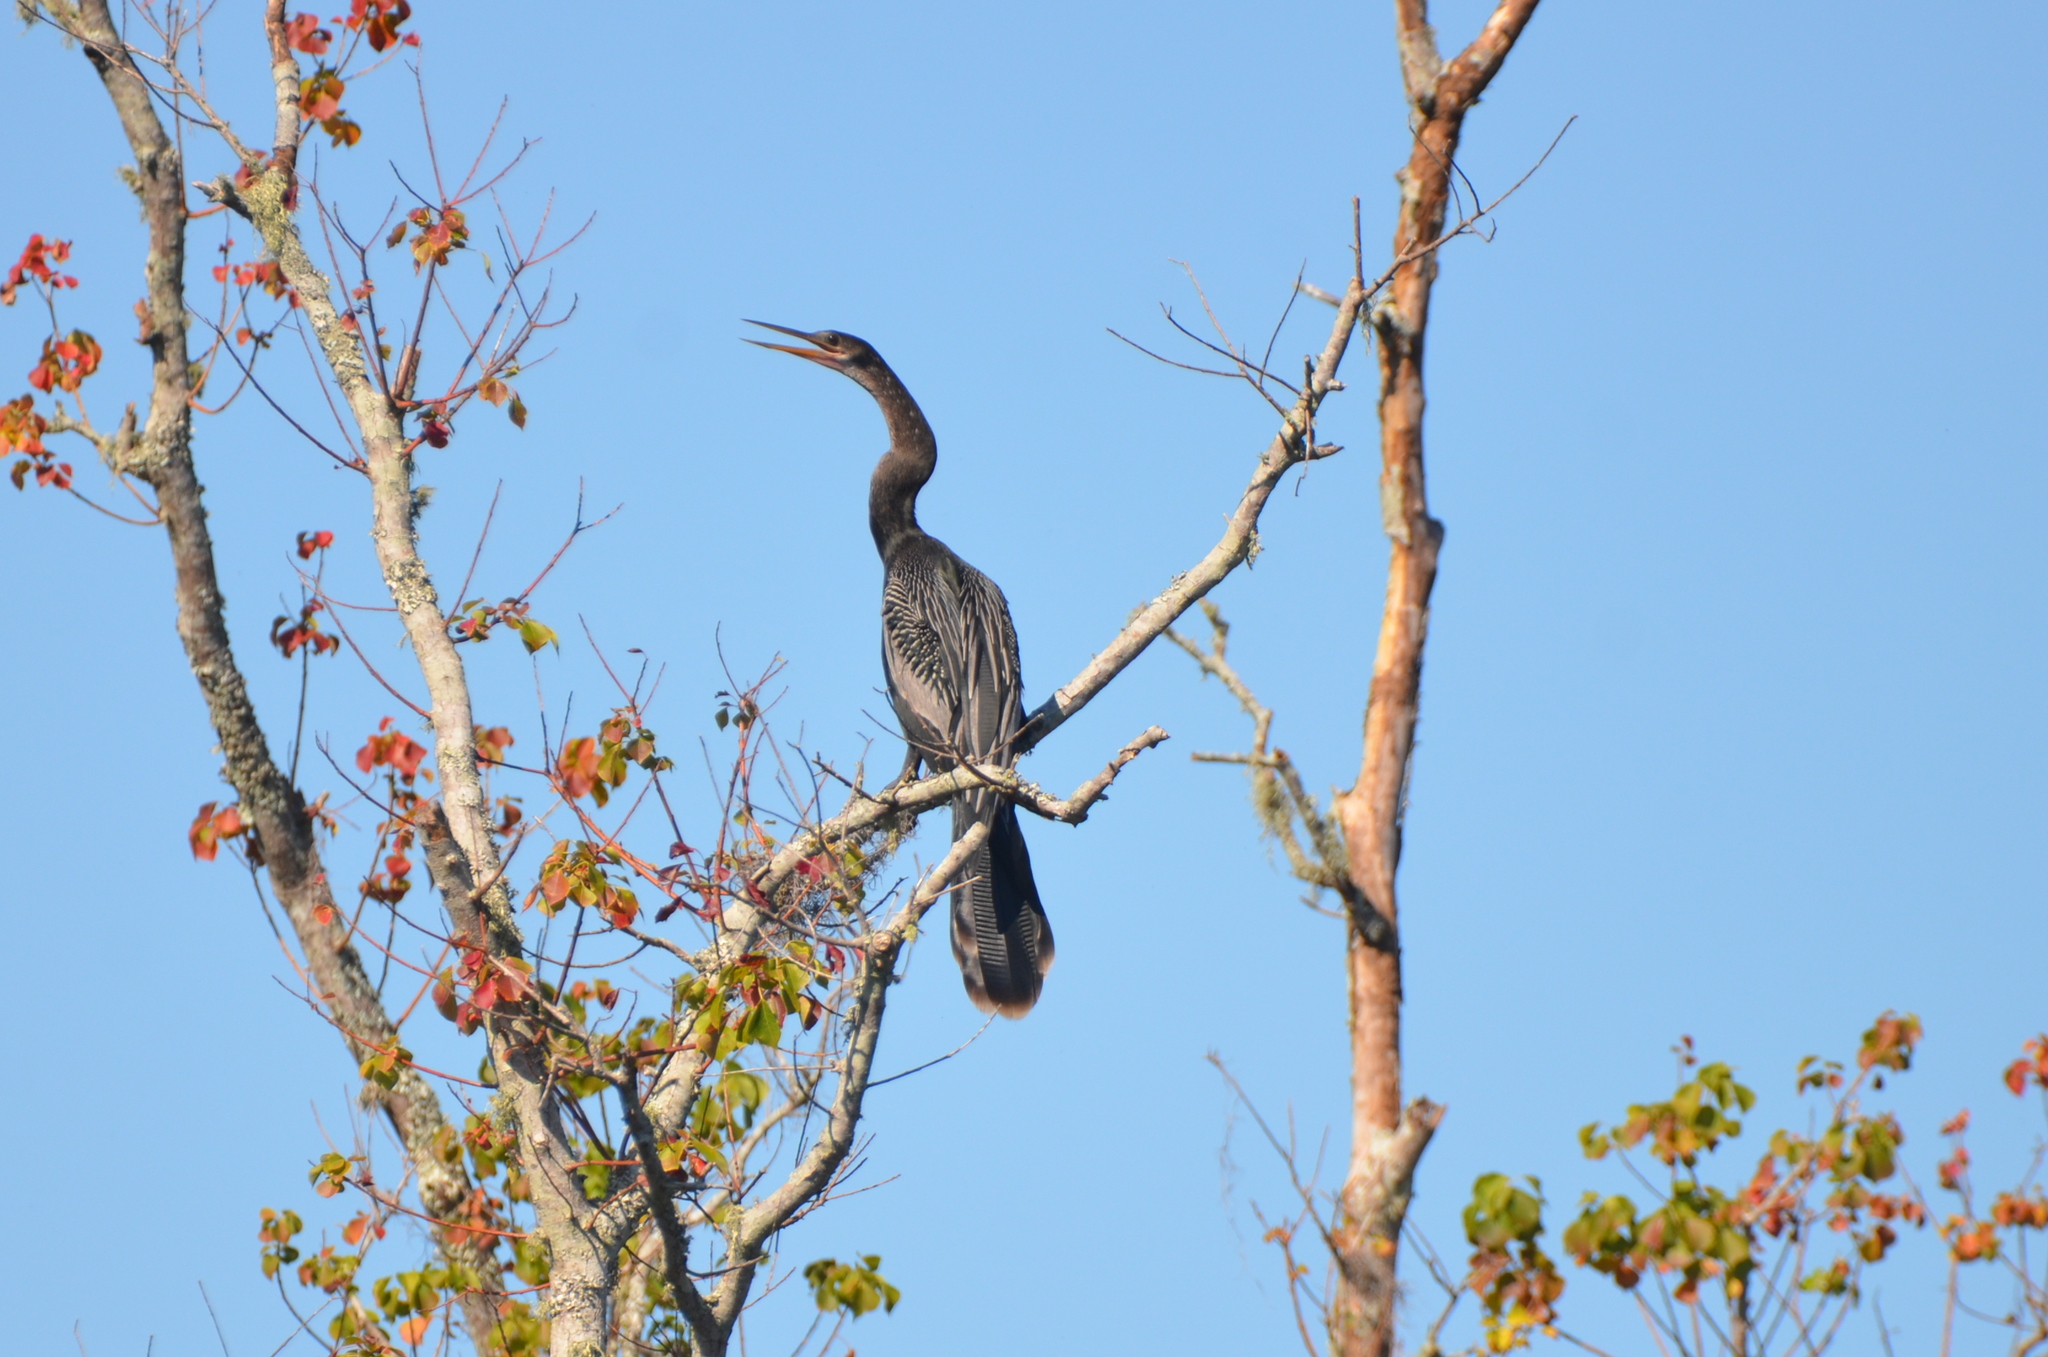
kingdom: Animalia
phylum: Chordata
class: Aves
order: Suliformes
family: Anhingidae
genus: Anhinga
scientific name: Anhinga anhinga
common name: Anhinga
